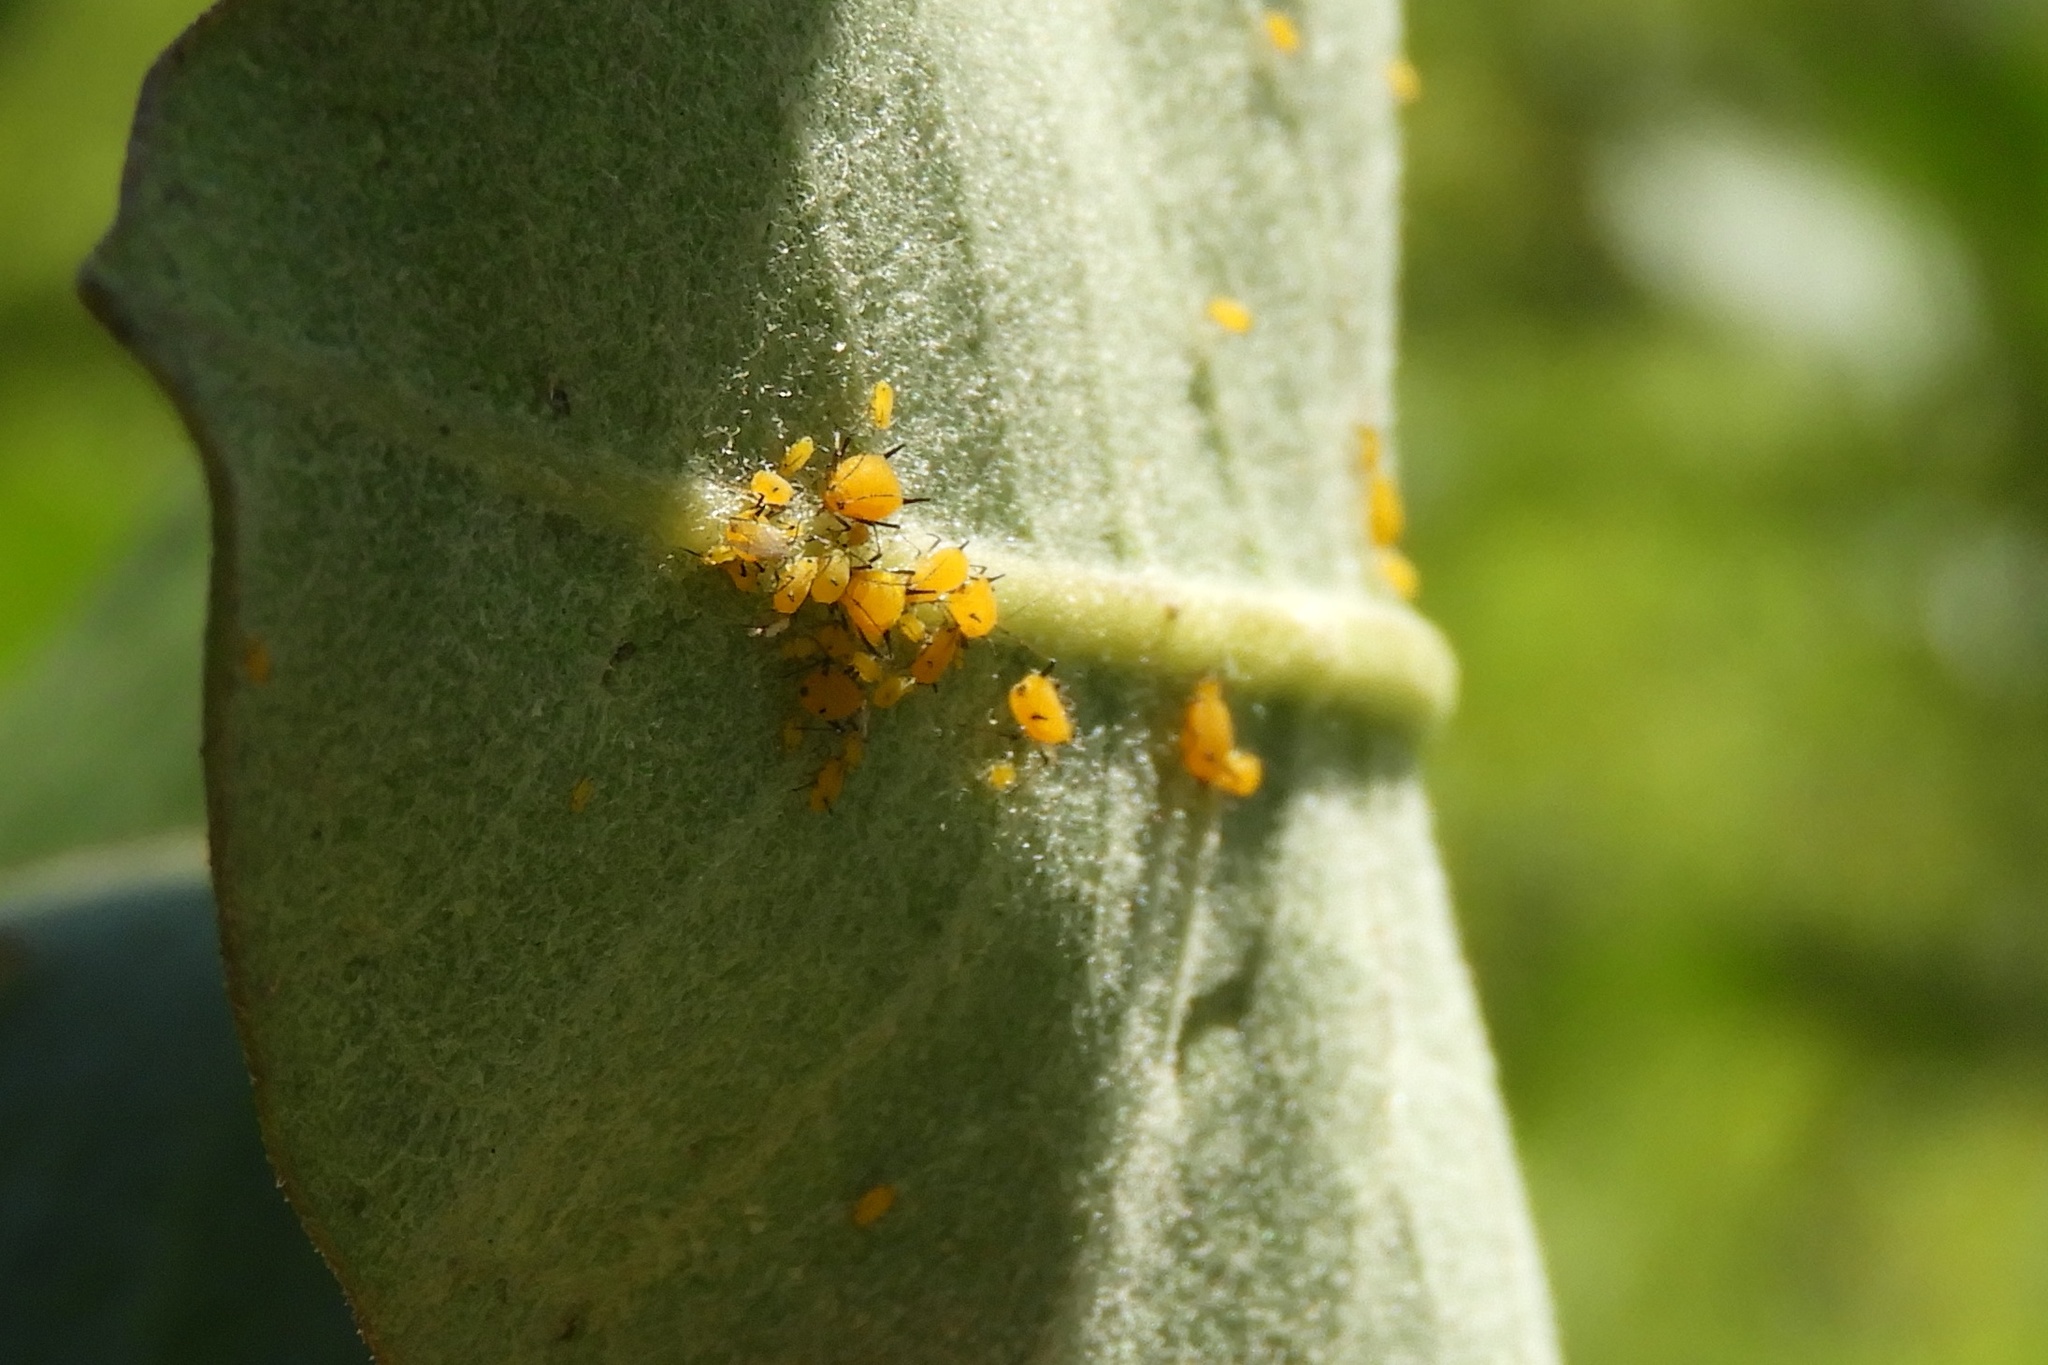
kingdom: Animalia
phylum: Arthropoda
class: Insecta
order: Hemiptera
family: Aphididae
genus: Aphis
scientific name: Aphis nerii
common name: Oleander aphid
